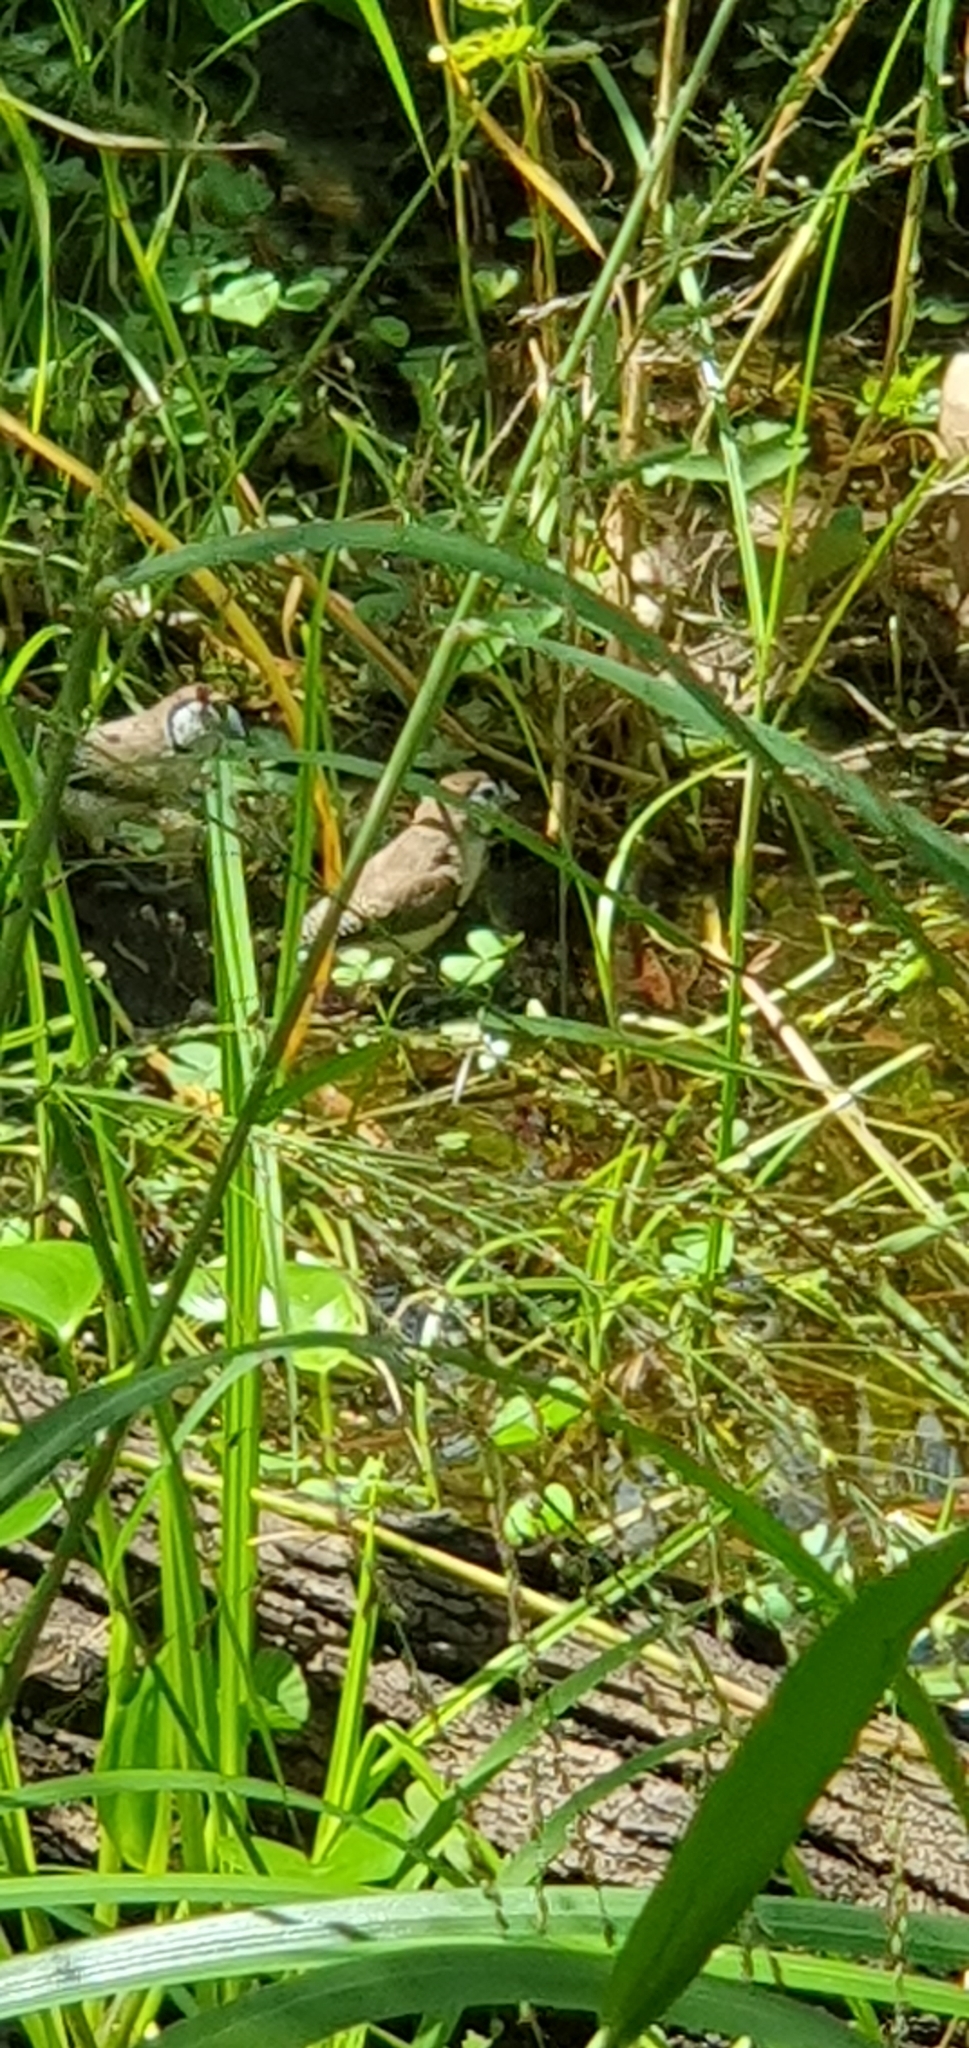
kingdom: Animalia
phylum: Chordata
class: Aves
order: Passeriformes
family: Estrildidae
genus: Taeniopygia
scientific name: Taeniopygia bichenovii
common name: Double-barred finch
